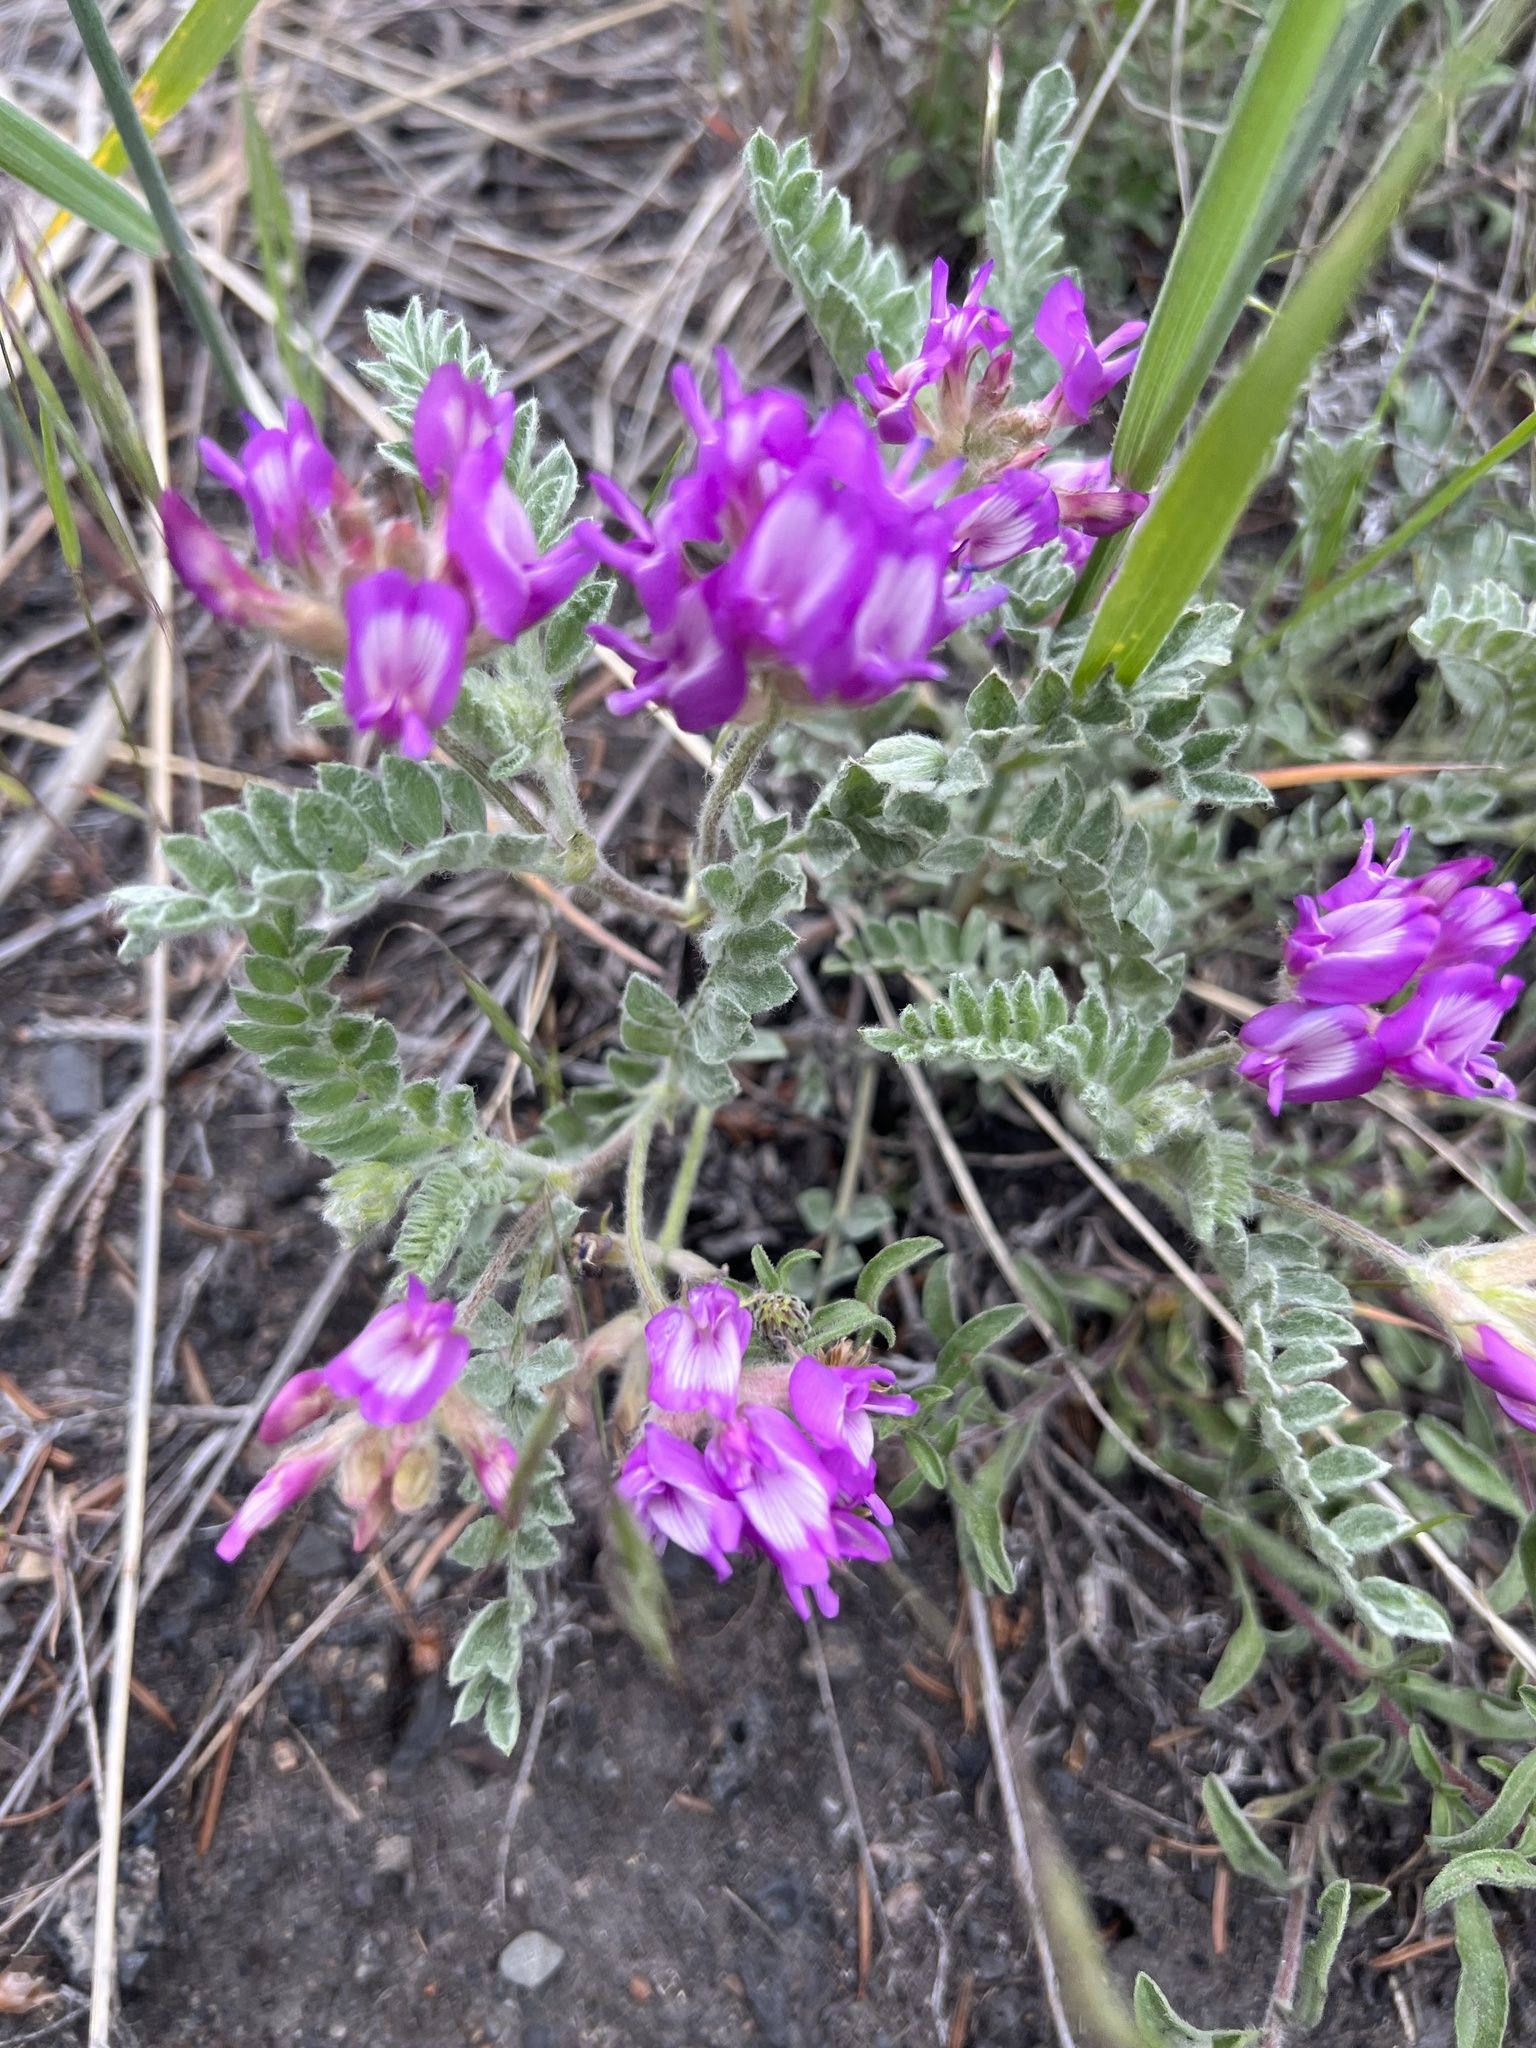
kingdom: Plantae
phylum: Tracheophyta
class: Magnoliopsida
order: Fabales
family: Fabaceae
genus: Astragalus
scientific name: Astragalus inflexus
